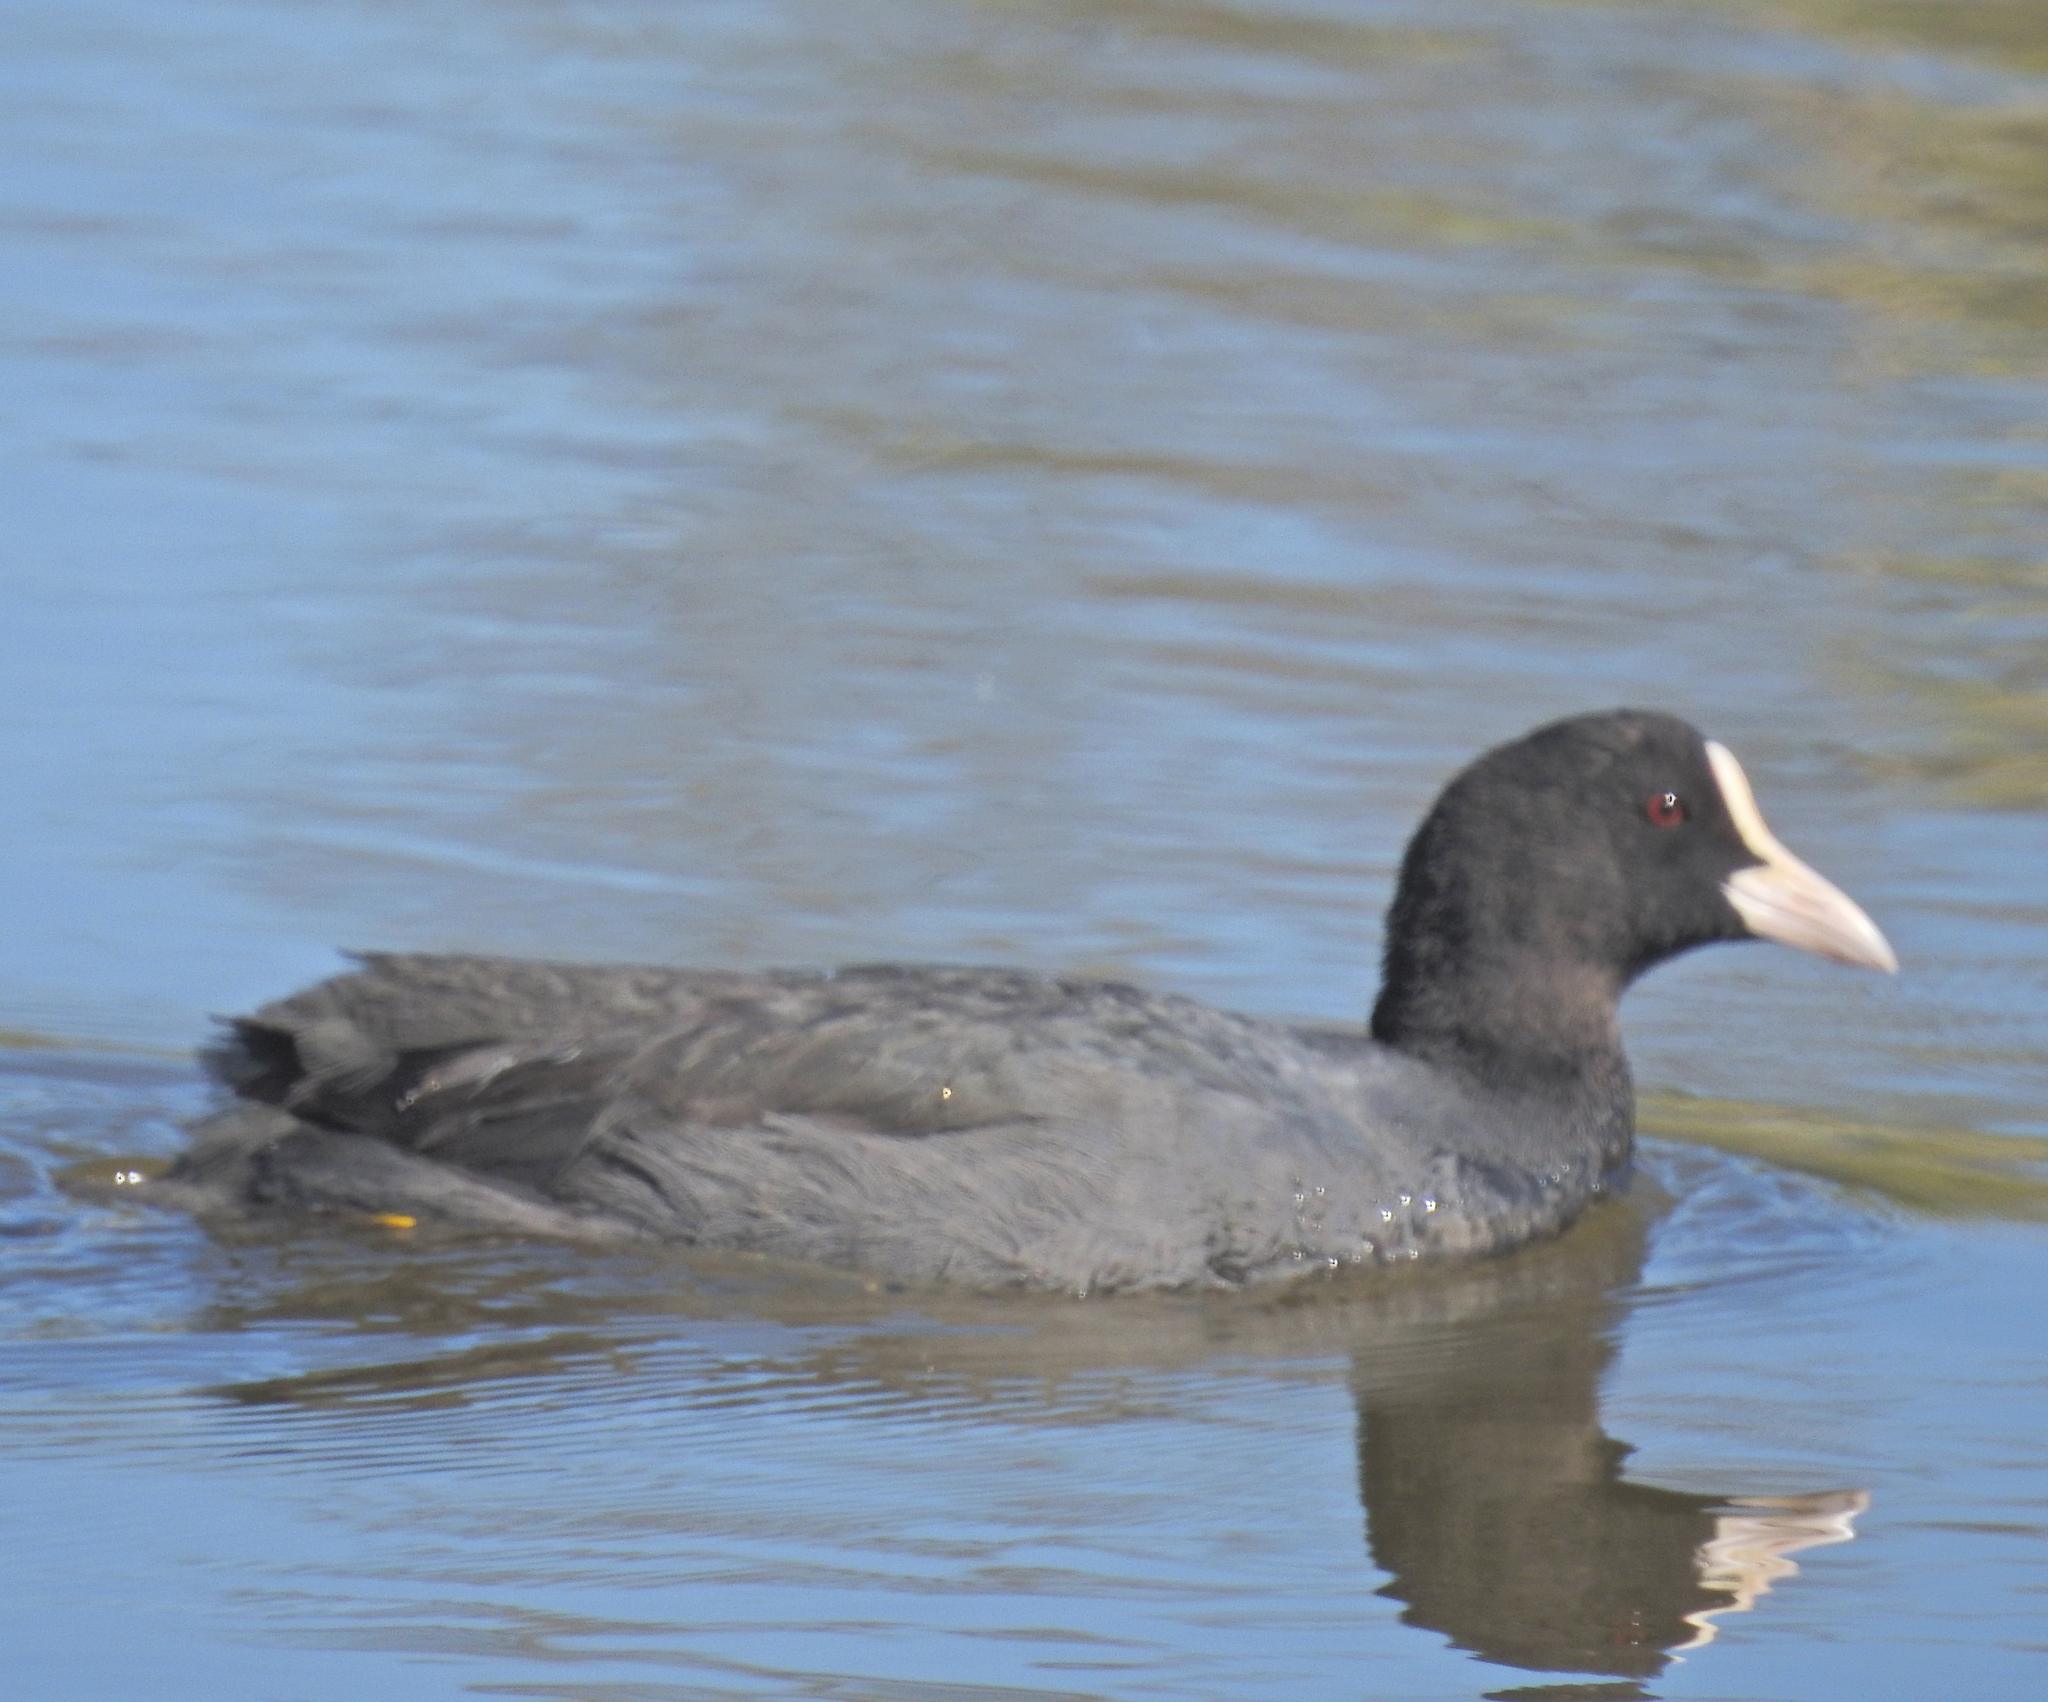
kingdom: Animalia
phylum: Chordata
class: Aves
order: Gruiformes
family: Rallidae
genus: Fulica
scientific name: Fulica atra
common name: Eurasian coot
